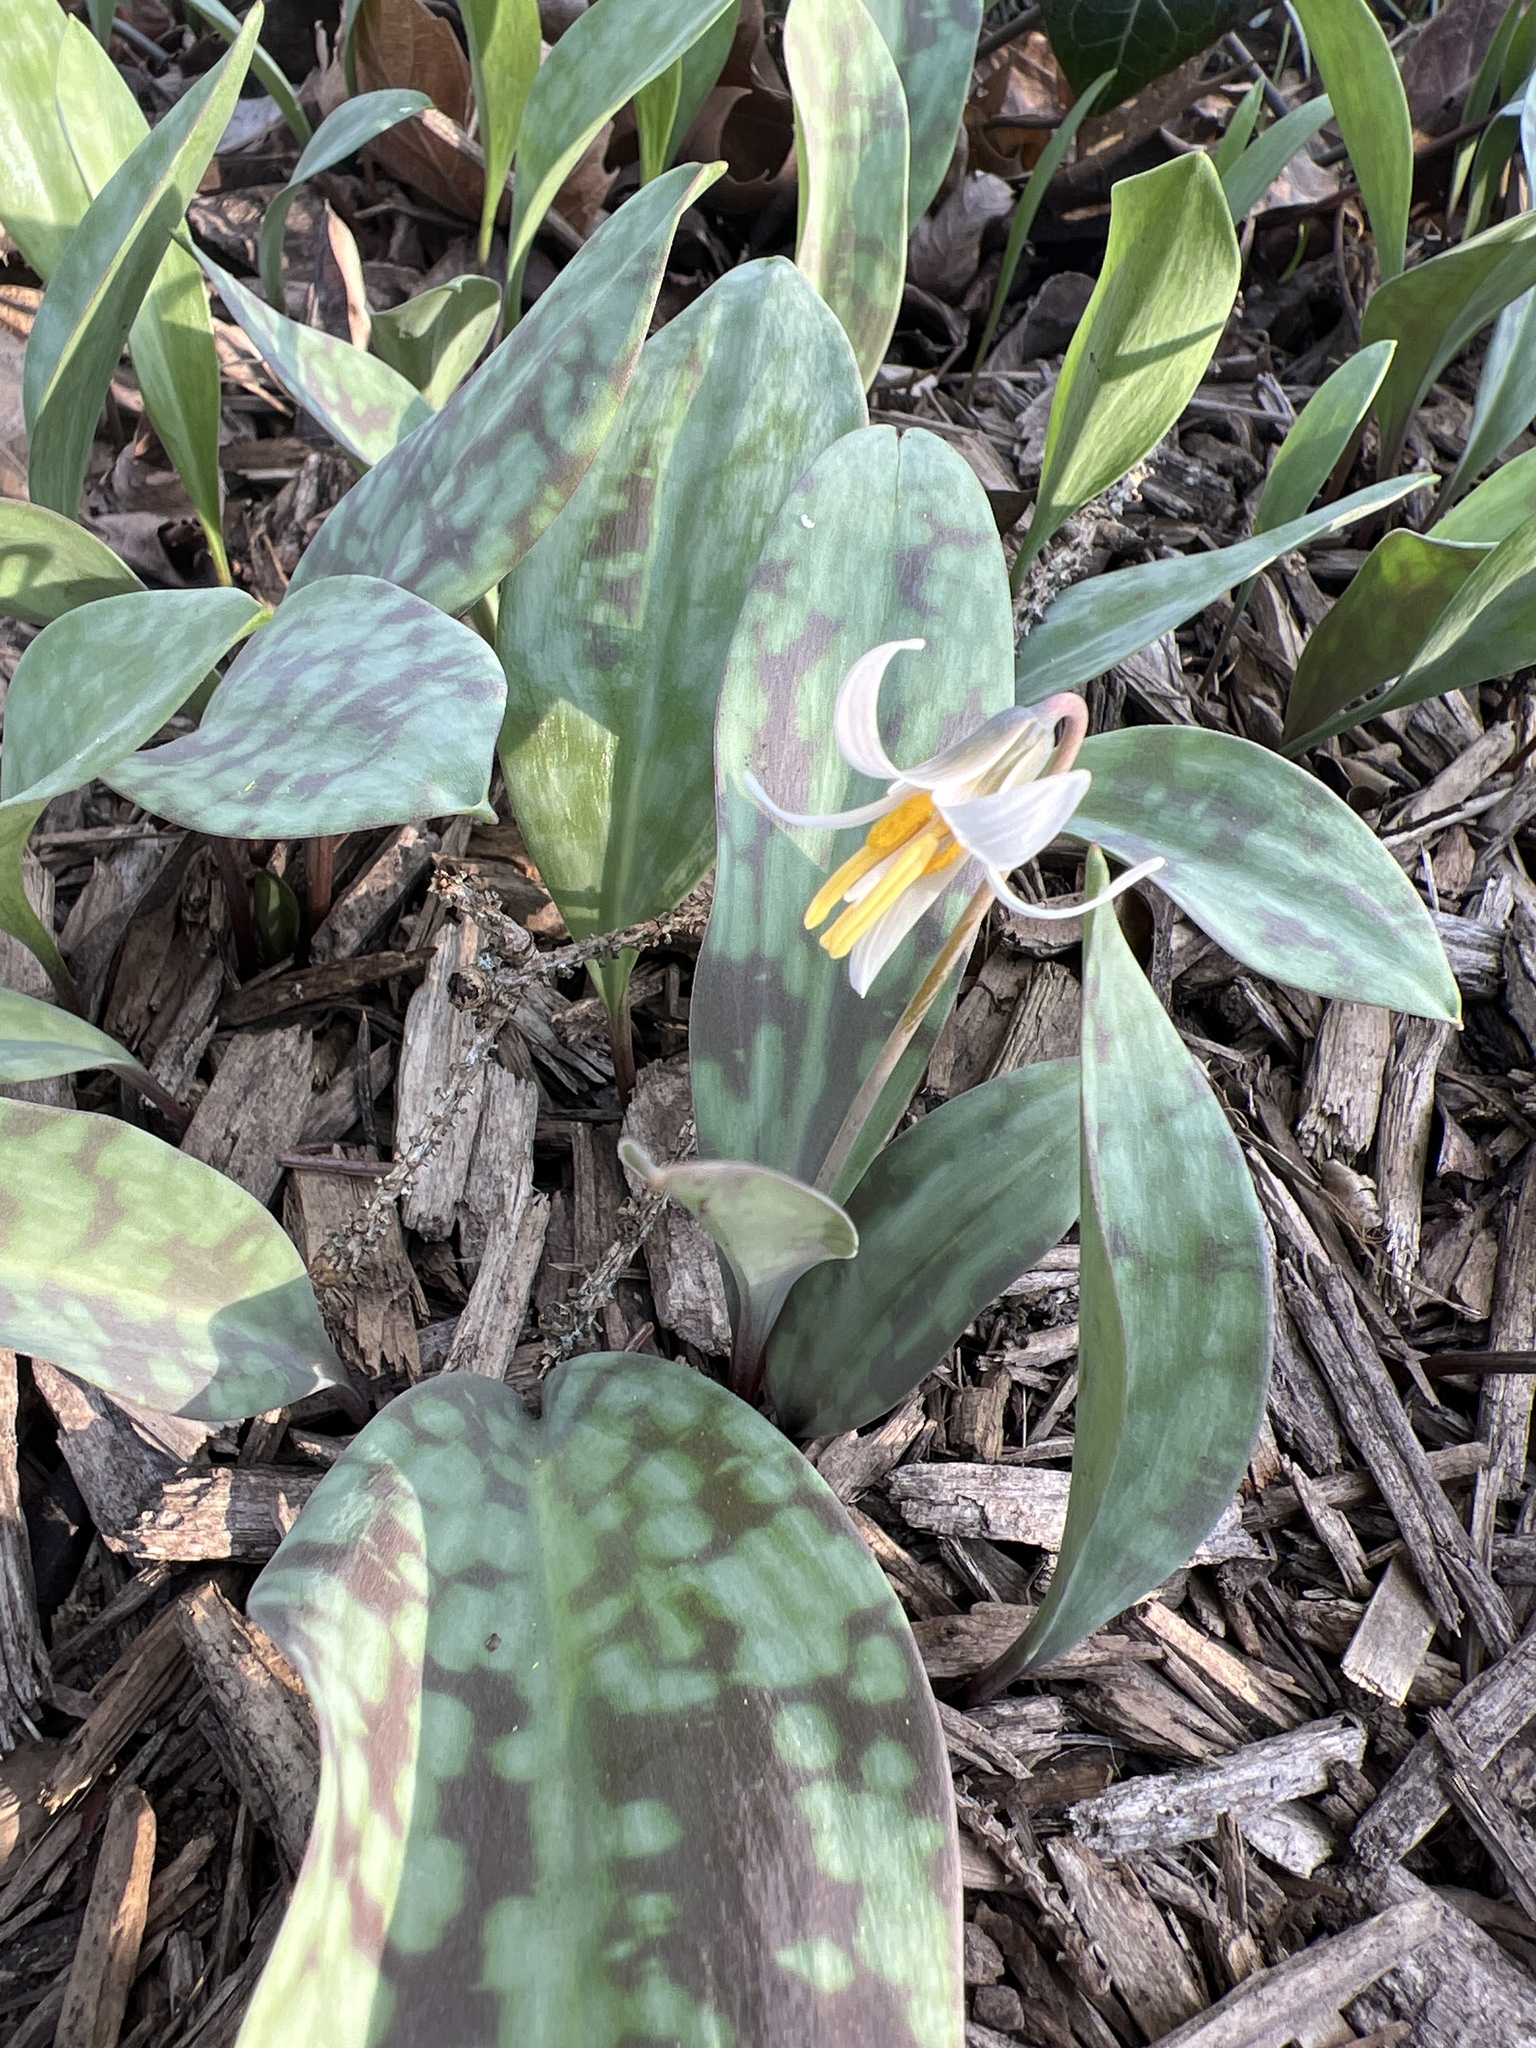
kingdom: Plantae
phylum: Tracheophyta
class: Liliopsida
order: Liliales
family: Liliaceae
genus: Erythronium
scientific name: Erythronium albidum
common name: White trout-lily
